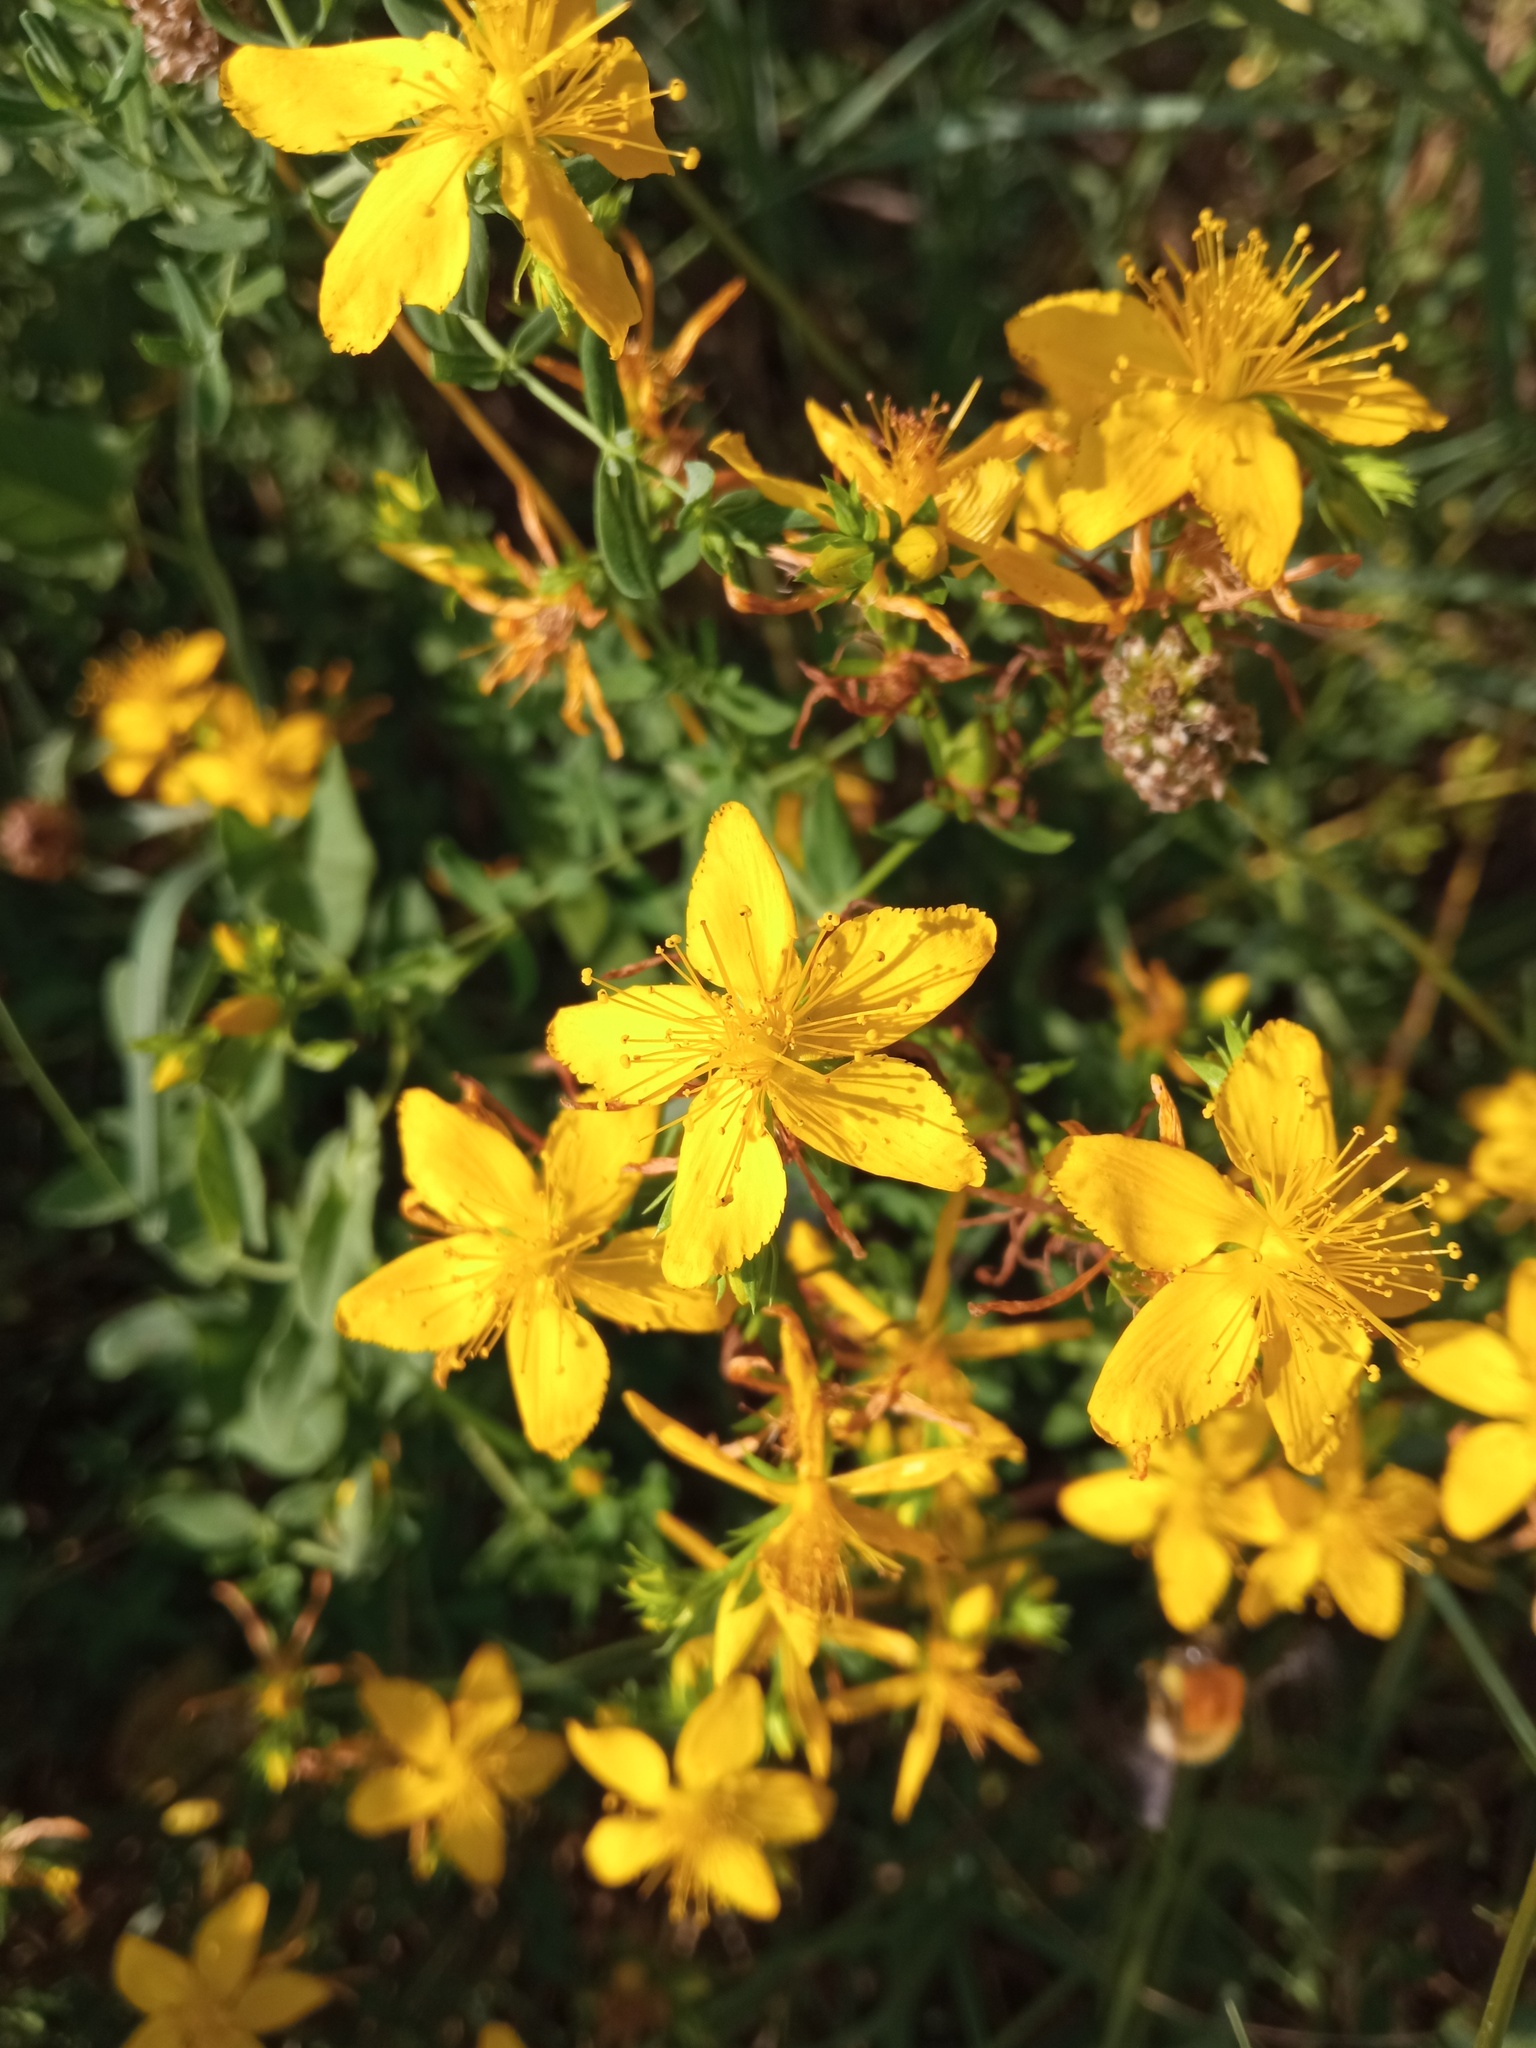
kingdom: Plantae
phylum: Tracheophyta
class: Magnoliopsida
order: Malpighiales
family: Hypericaceae
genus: Hypericum
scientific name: Hypericum perforatum
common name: Common st. johnswort
